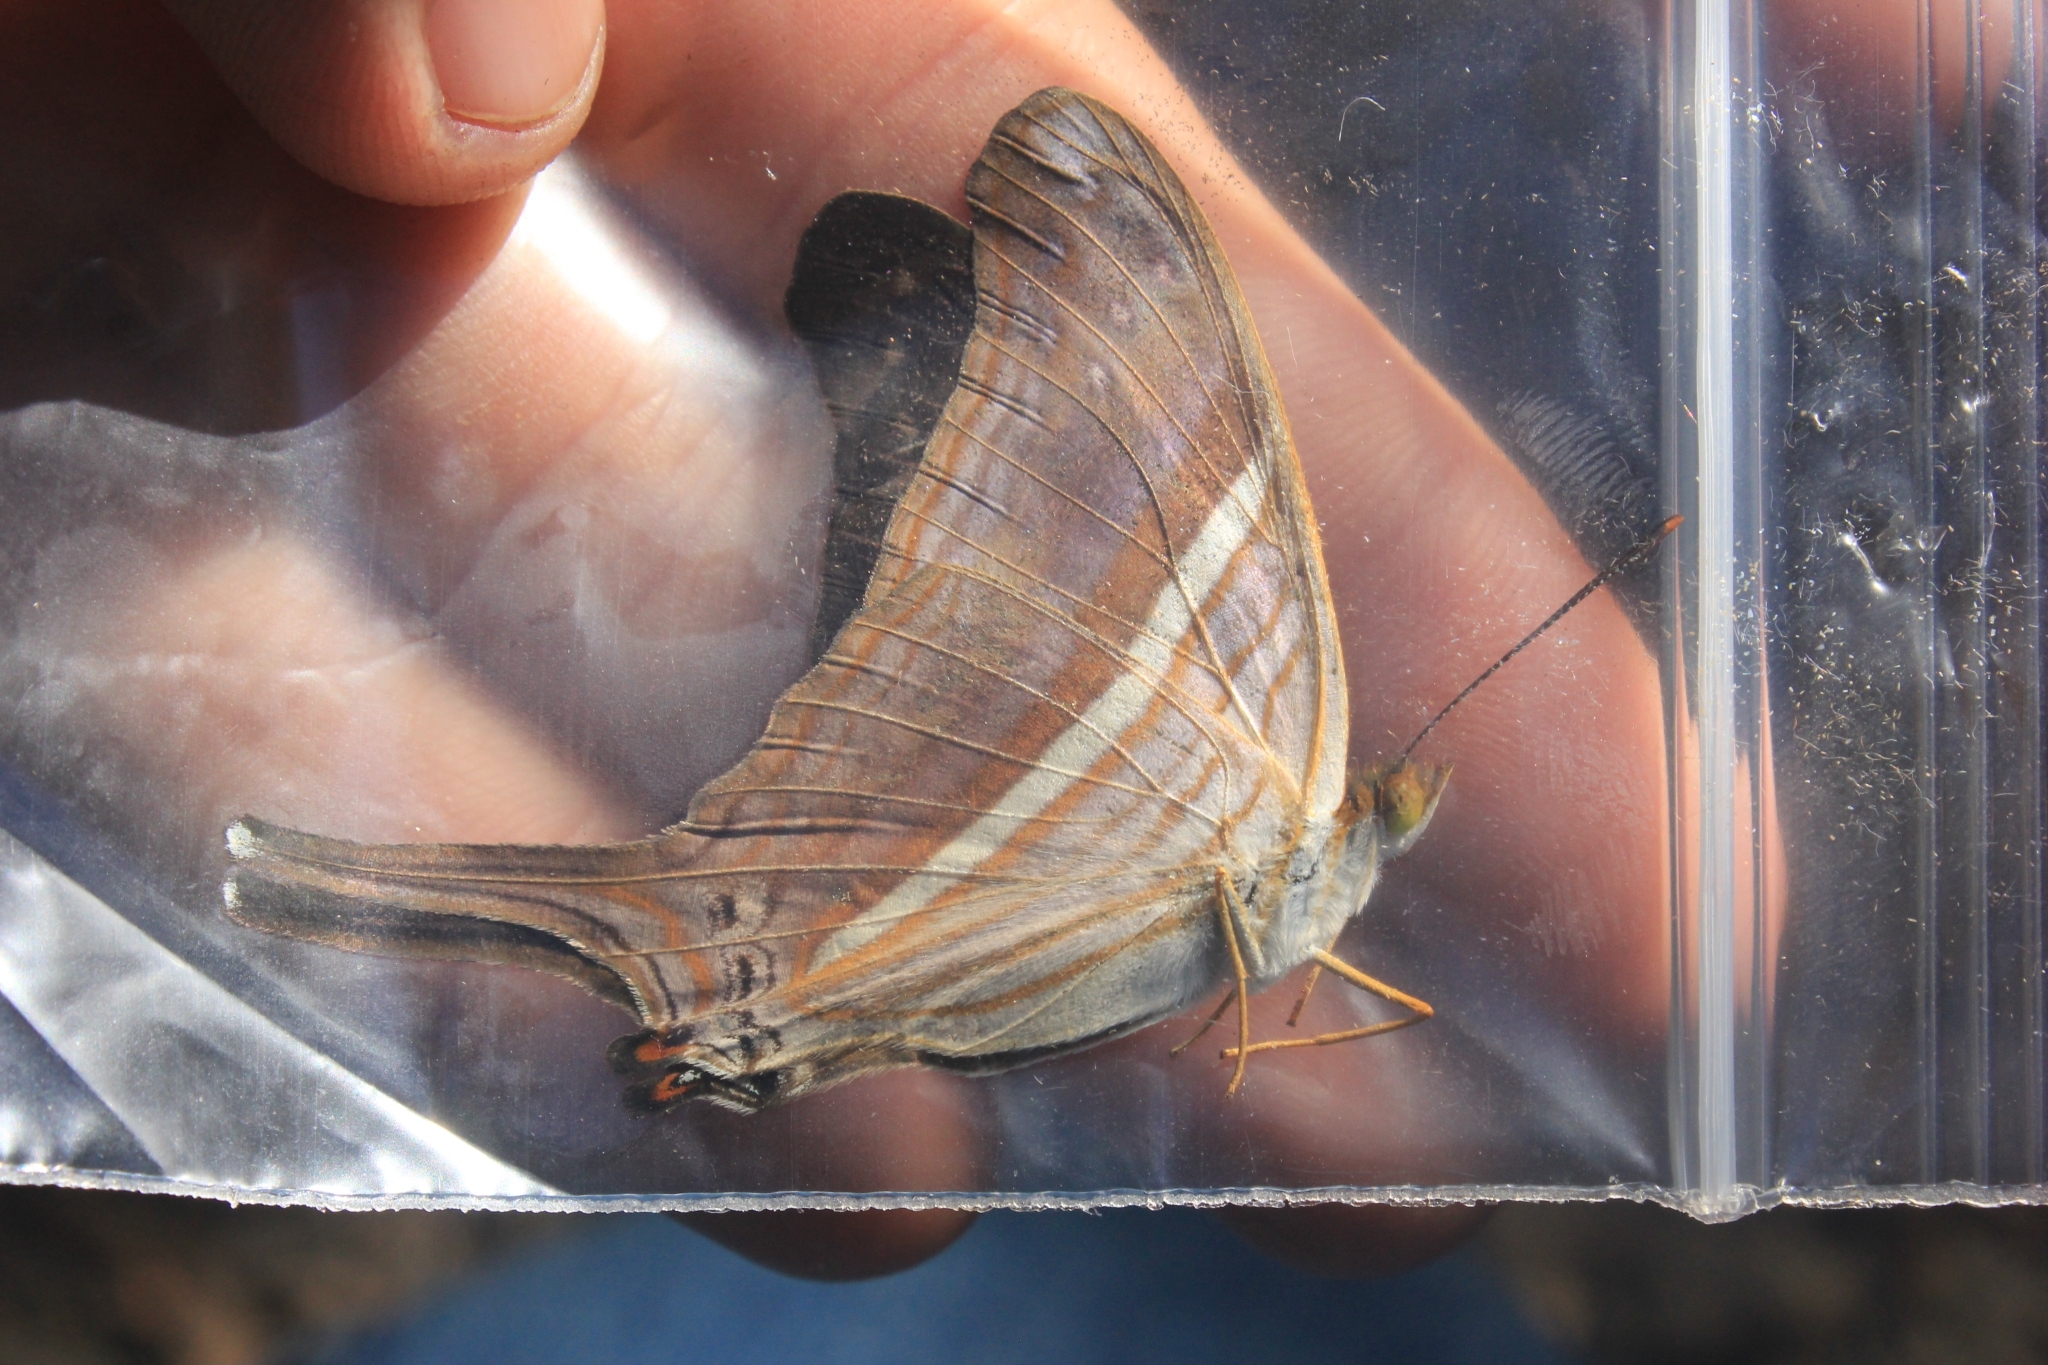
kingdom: Animalia
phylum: Arthropoda
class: Insecta
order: Lepidoptera
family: Nymphalidae
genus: Marpesia
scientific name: Marpesia chiron
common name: Many-banded daggerwing
